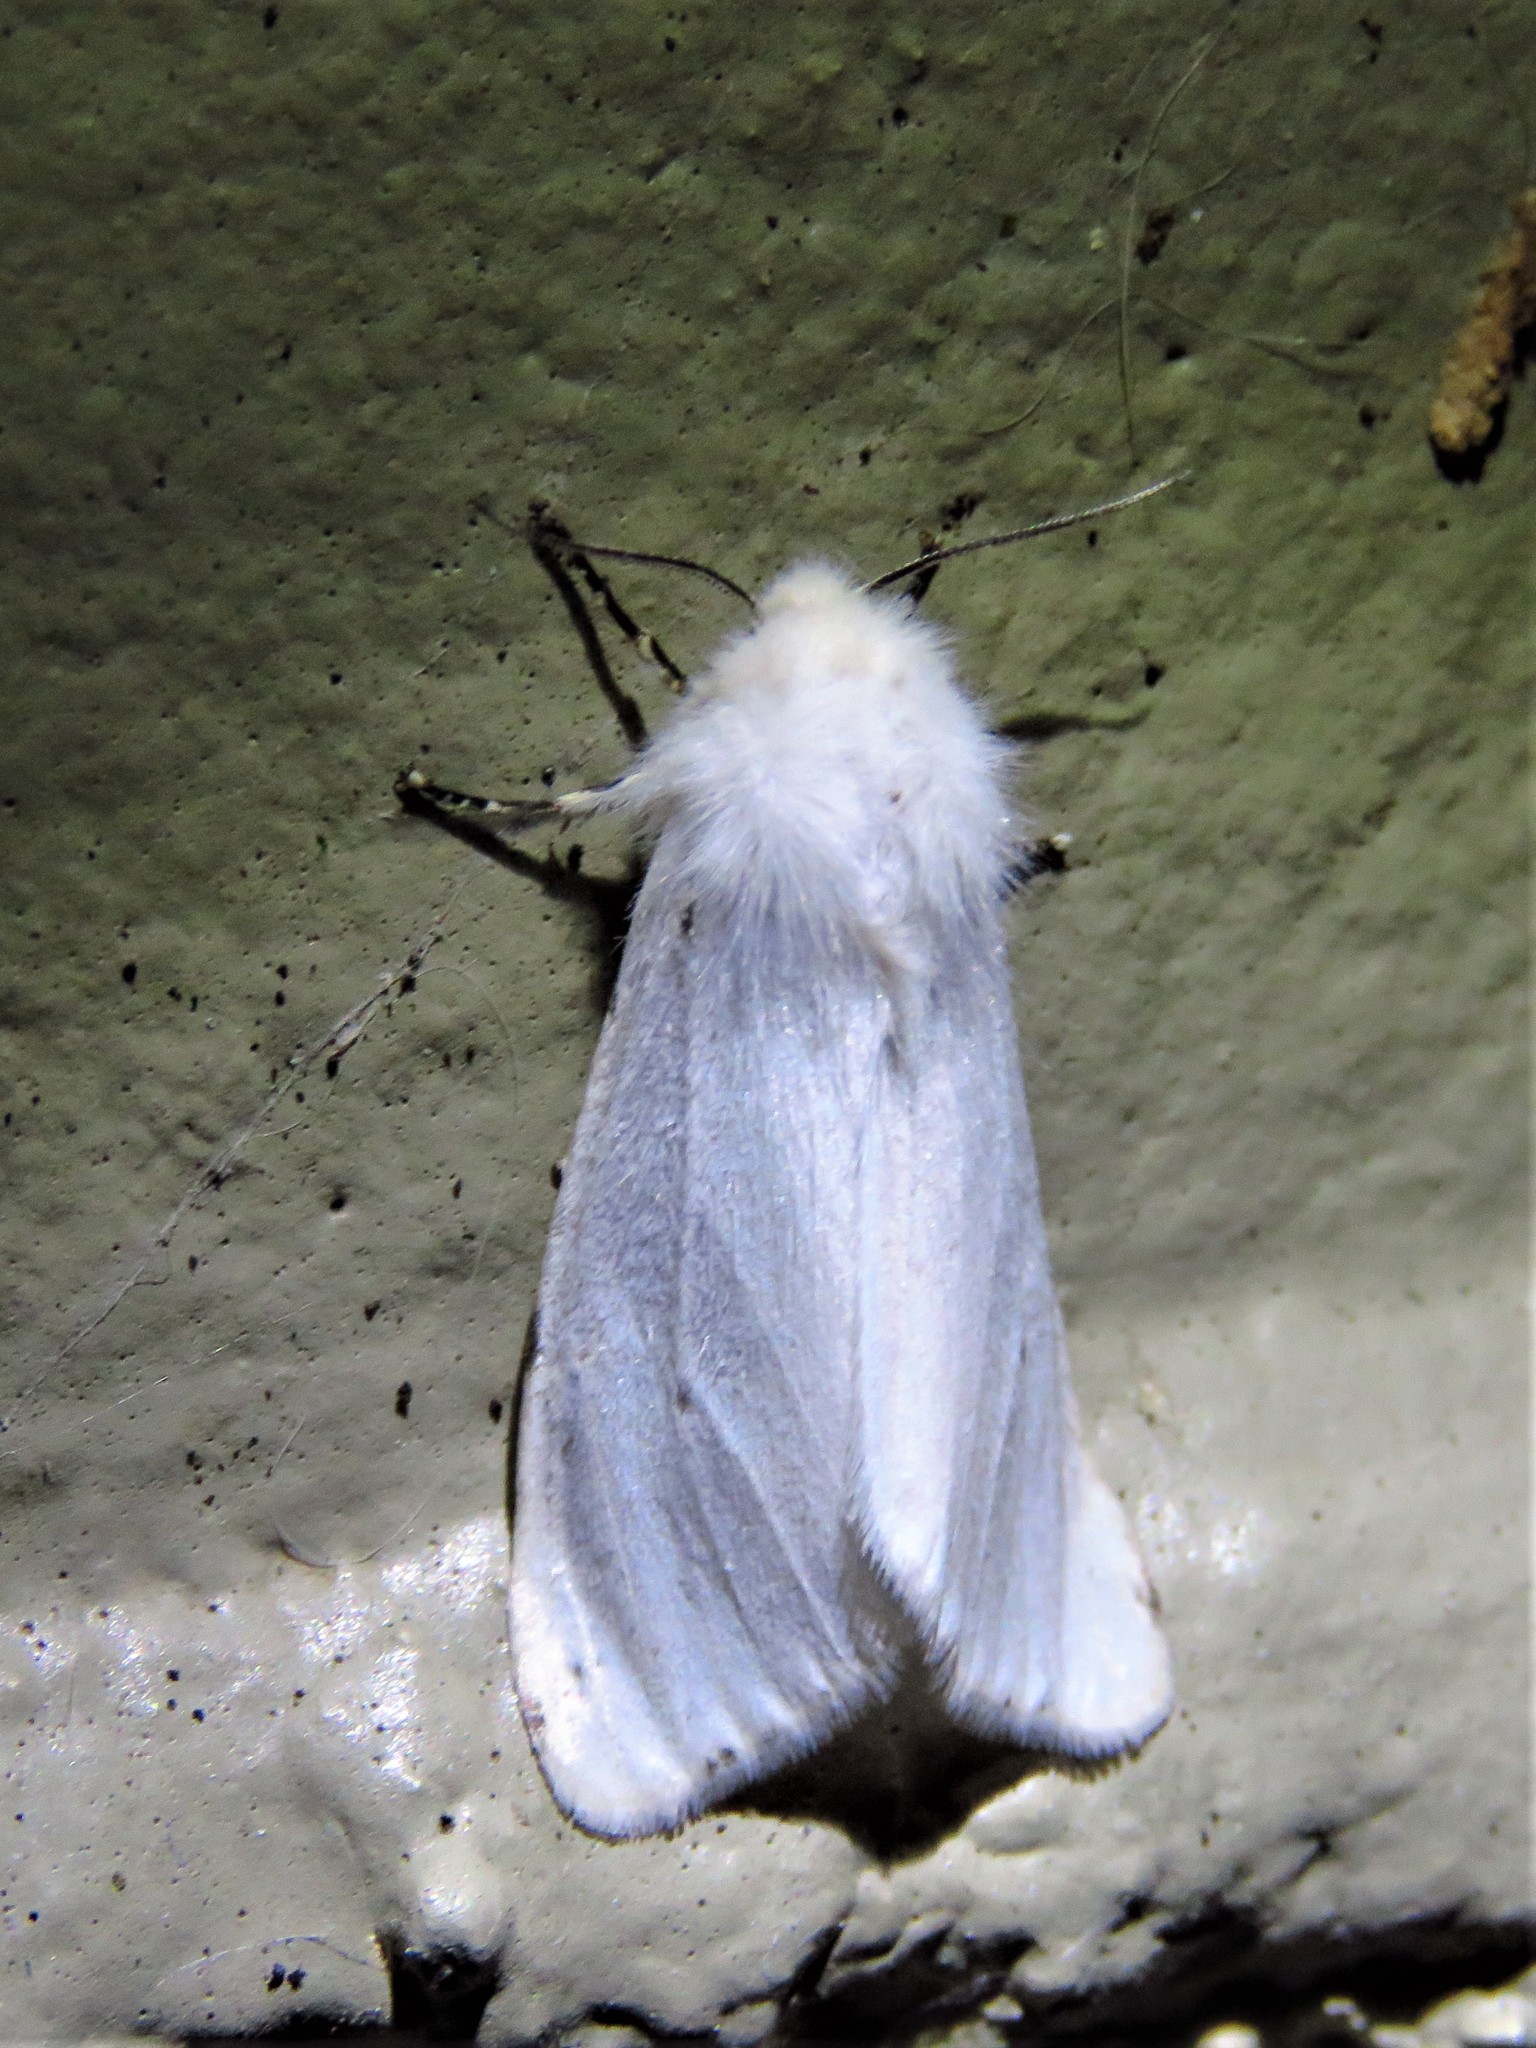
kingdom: Animalia
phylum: Arthropoda
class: Insecta
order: Lepidoptera
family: Erebidae
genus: Hyphantria
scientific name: Hyphantria cunea
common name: American white moth
